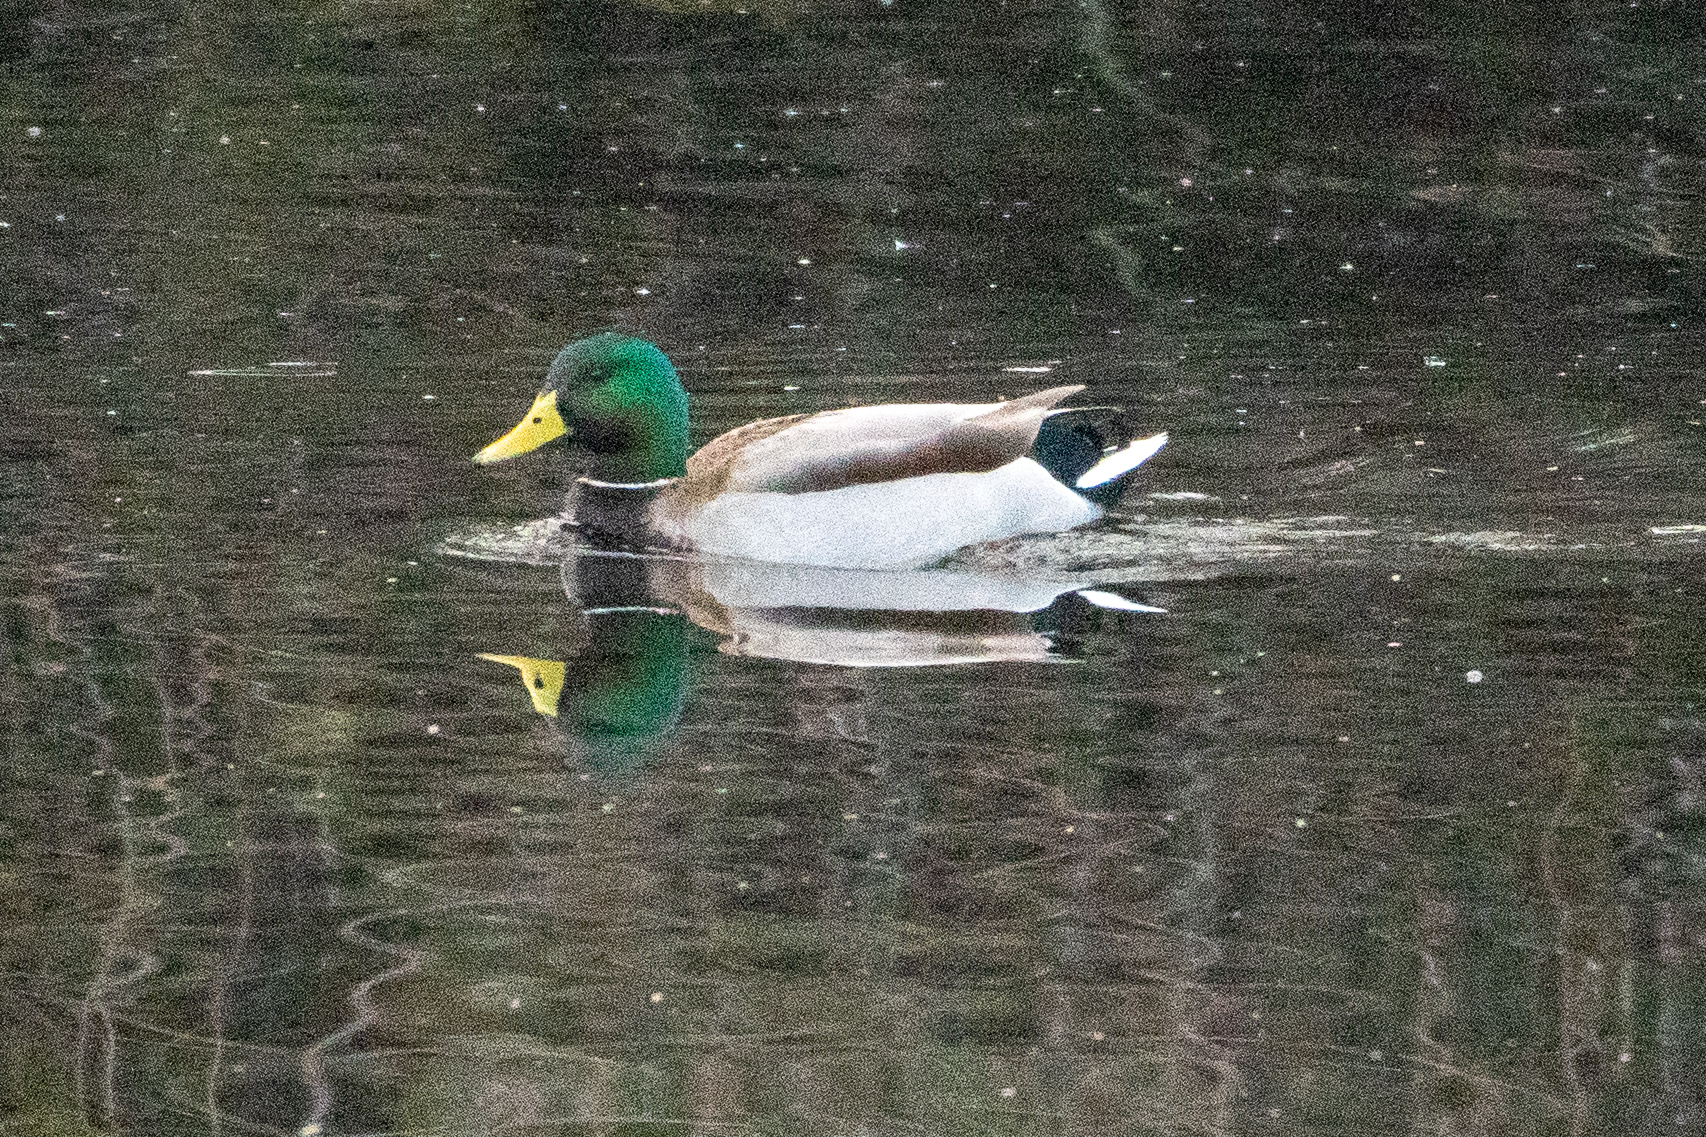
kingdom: Animalia
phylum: Chordata
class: Aves
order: Anseriformes
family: Anatidae
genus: Anas
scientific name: Anas platyrhynchos
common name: Mallard
